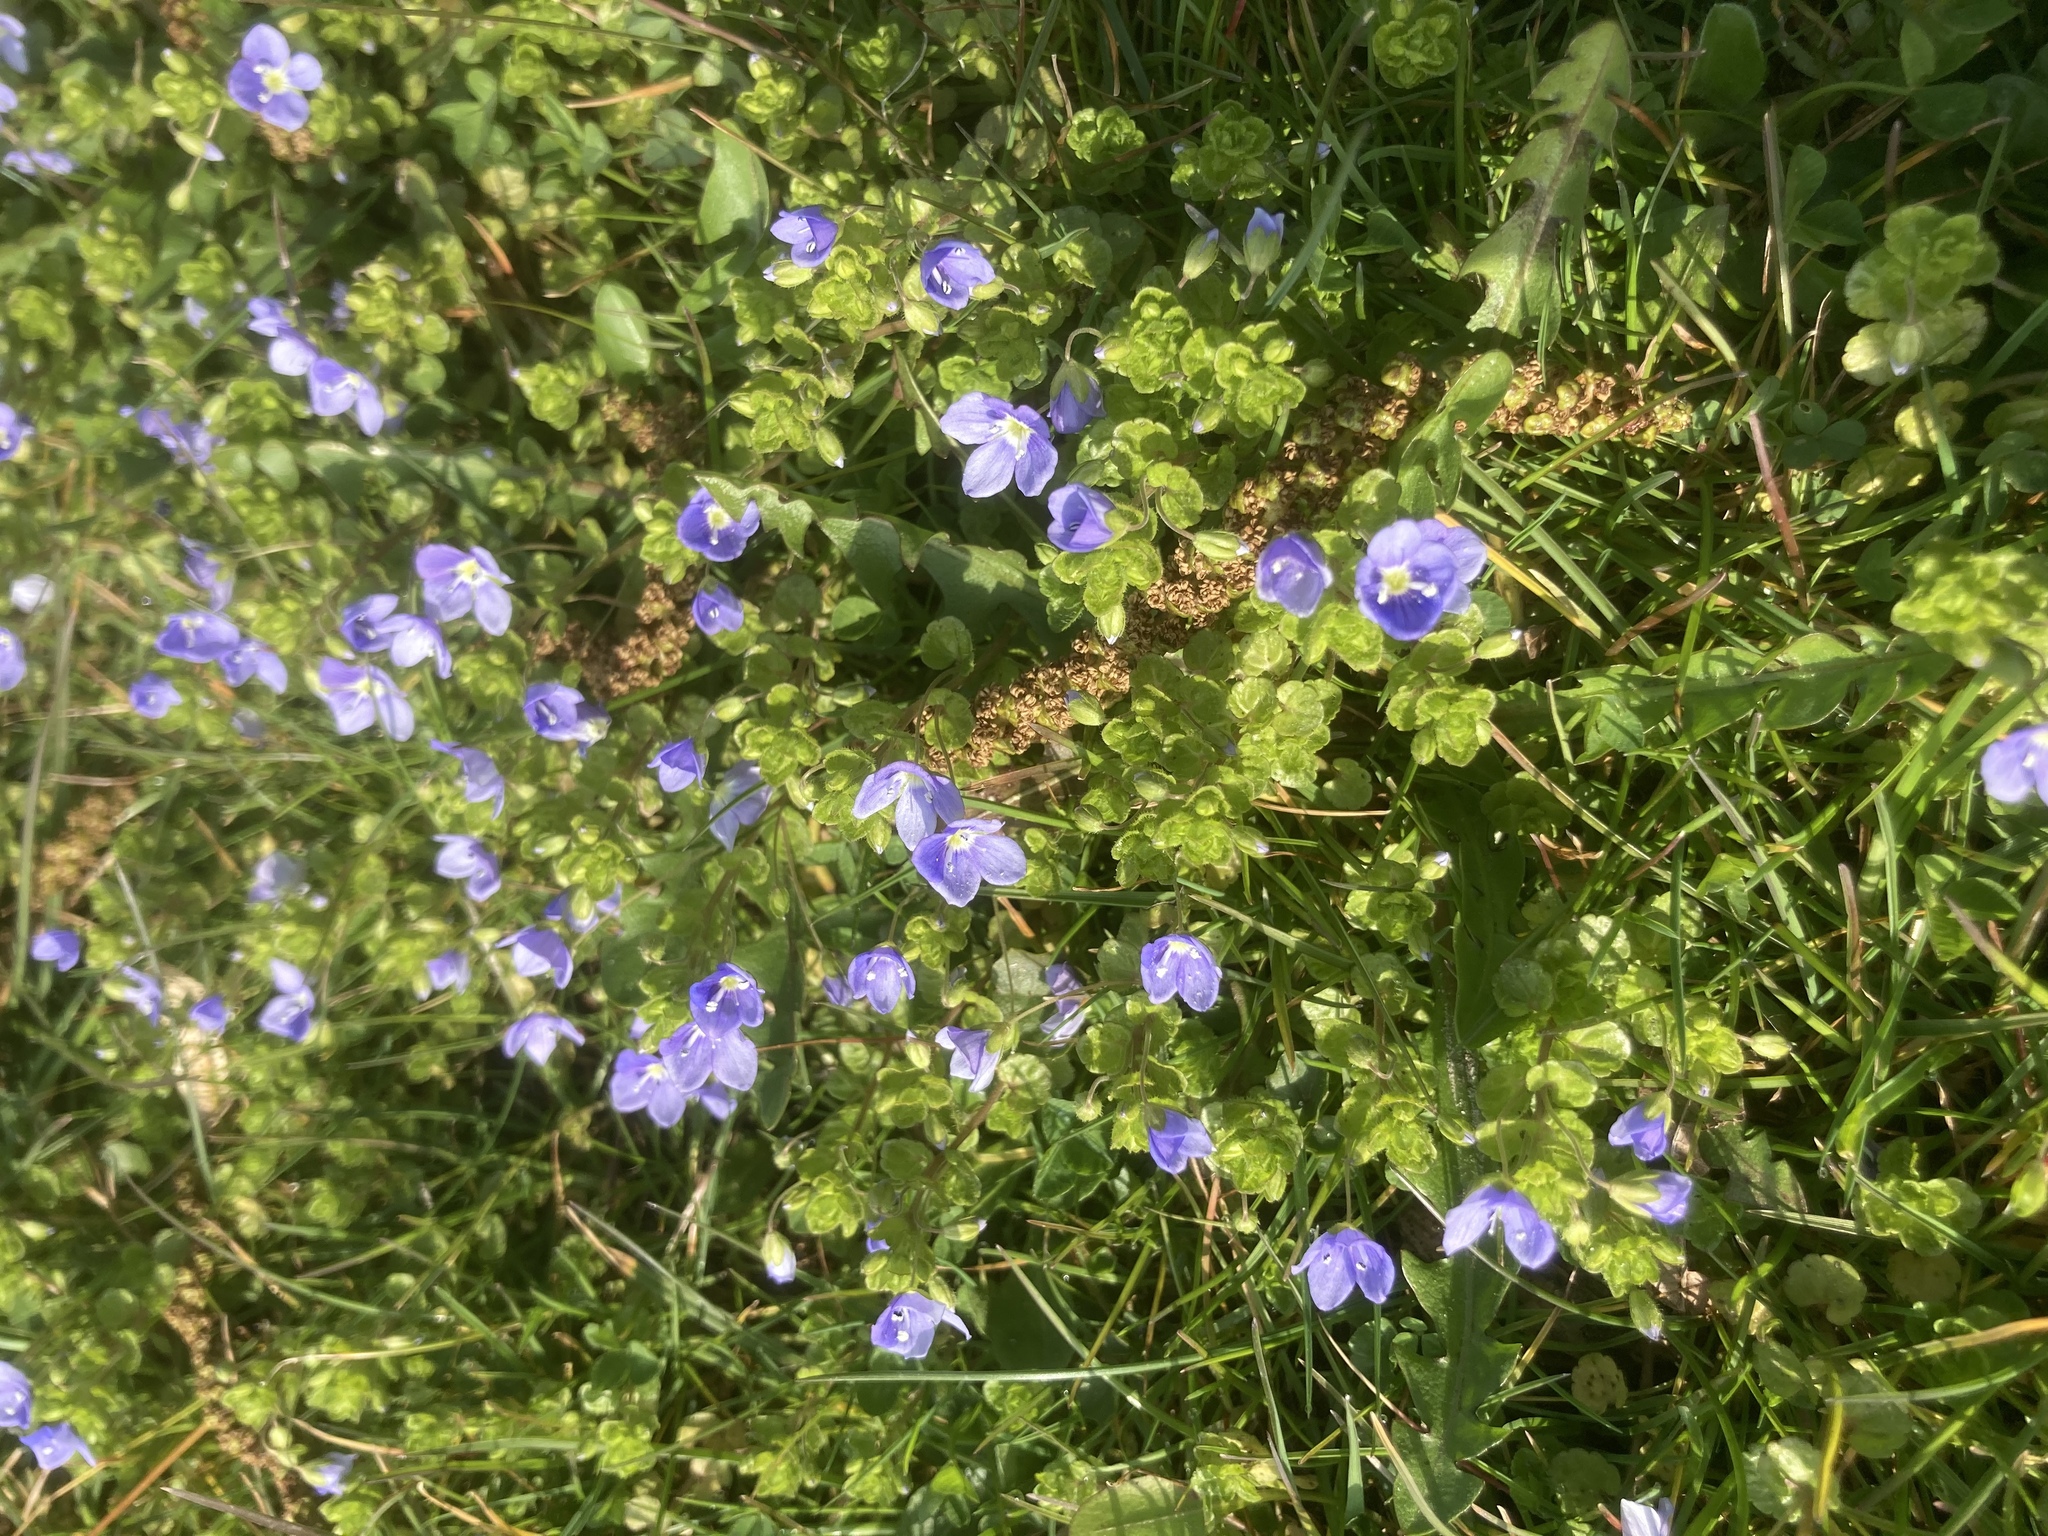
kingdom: Plantae
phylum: Tracheophyta
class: Magnoliopsida
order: Lamiales
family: Plantaginaceae
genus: Veronica
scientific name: Veronica filiformis
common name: Slender speedwell
